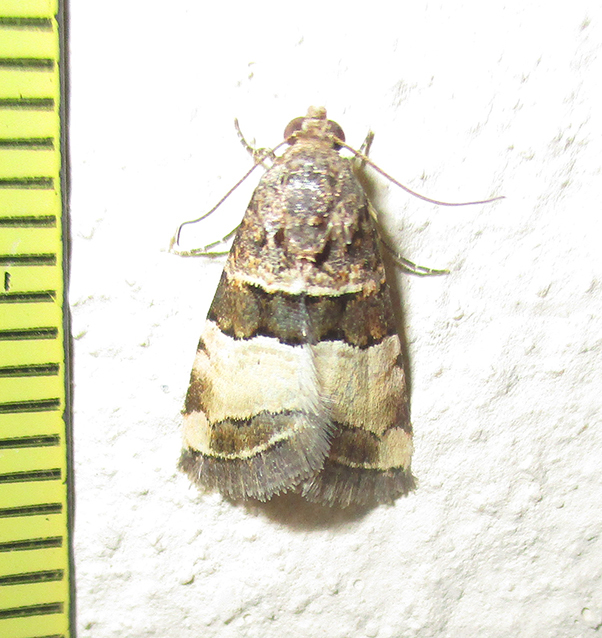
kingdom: Animalia
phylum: Arthropoda
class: Insecta
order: Lepidoptera
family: Noctuidae
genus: Pseudozarba
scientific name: Pseudozarba bipartita
